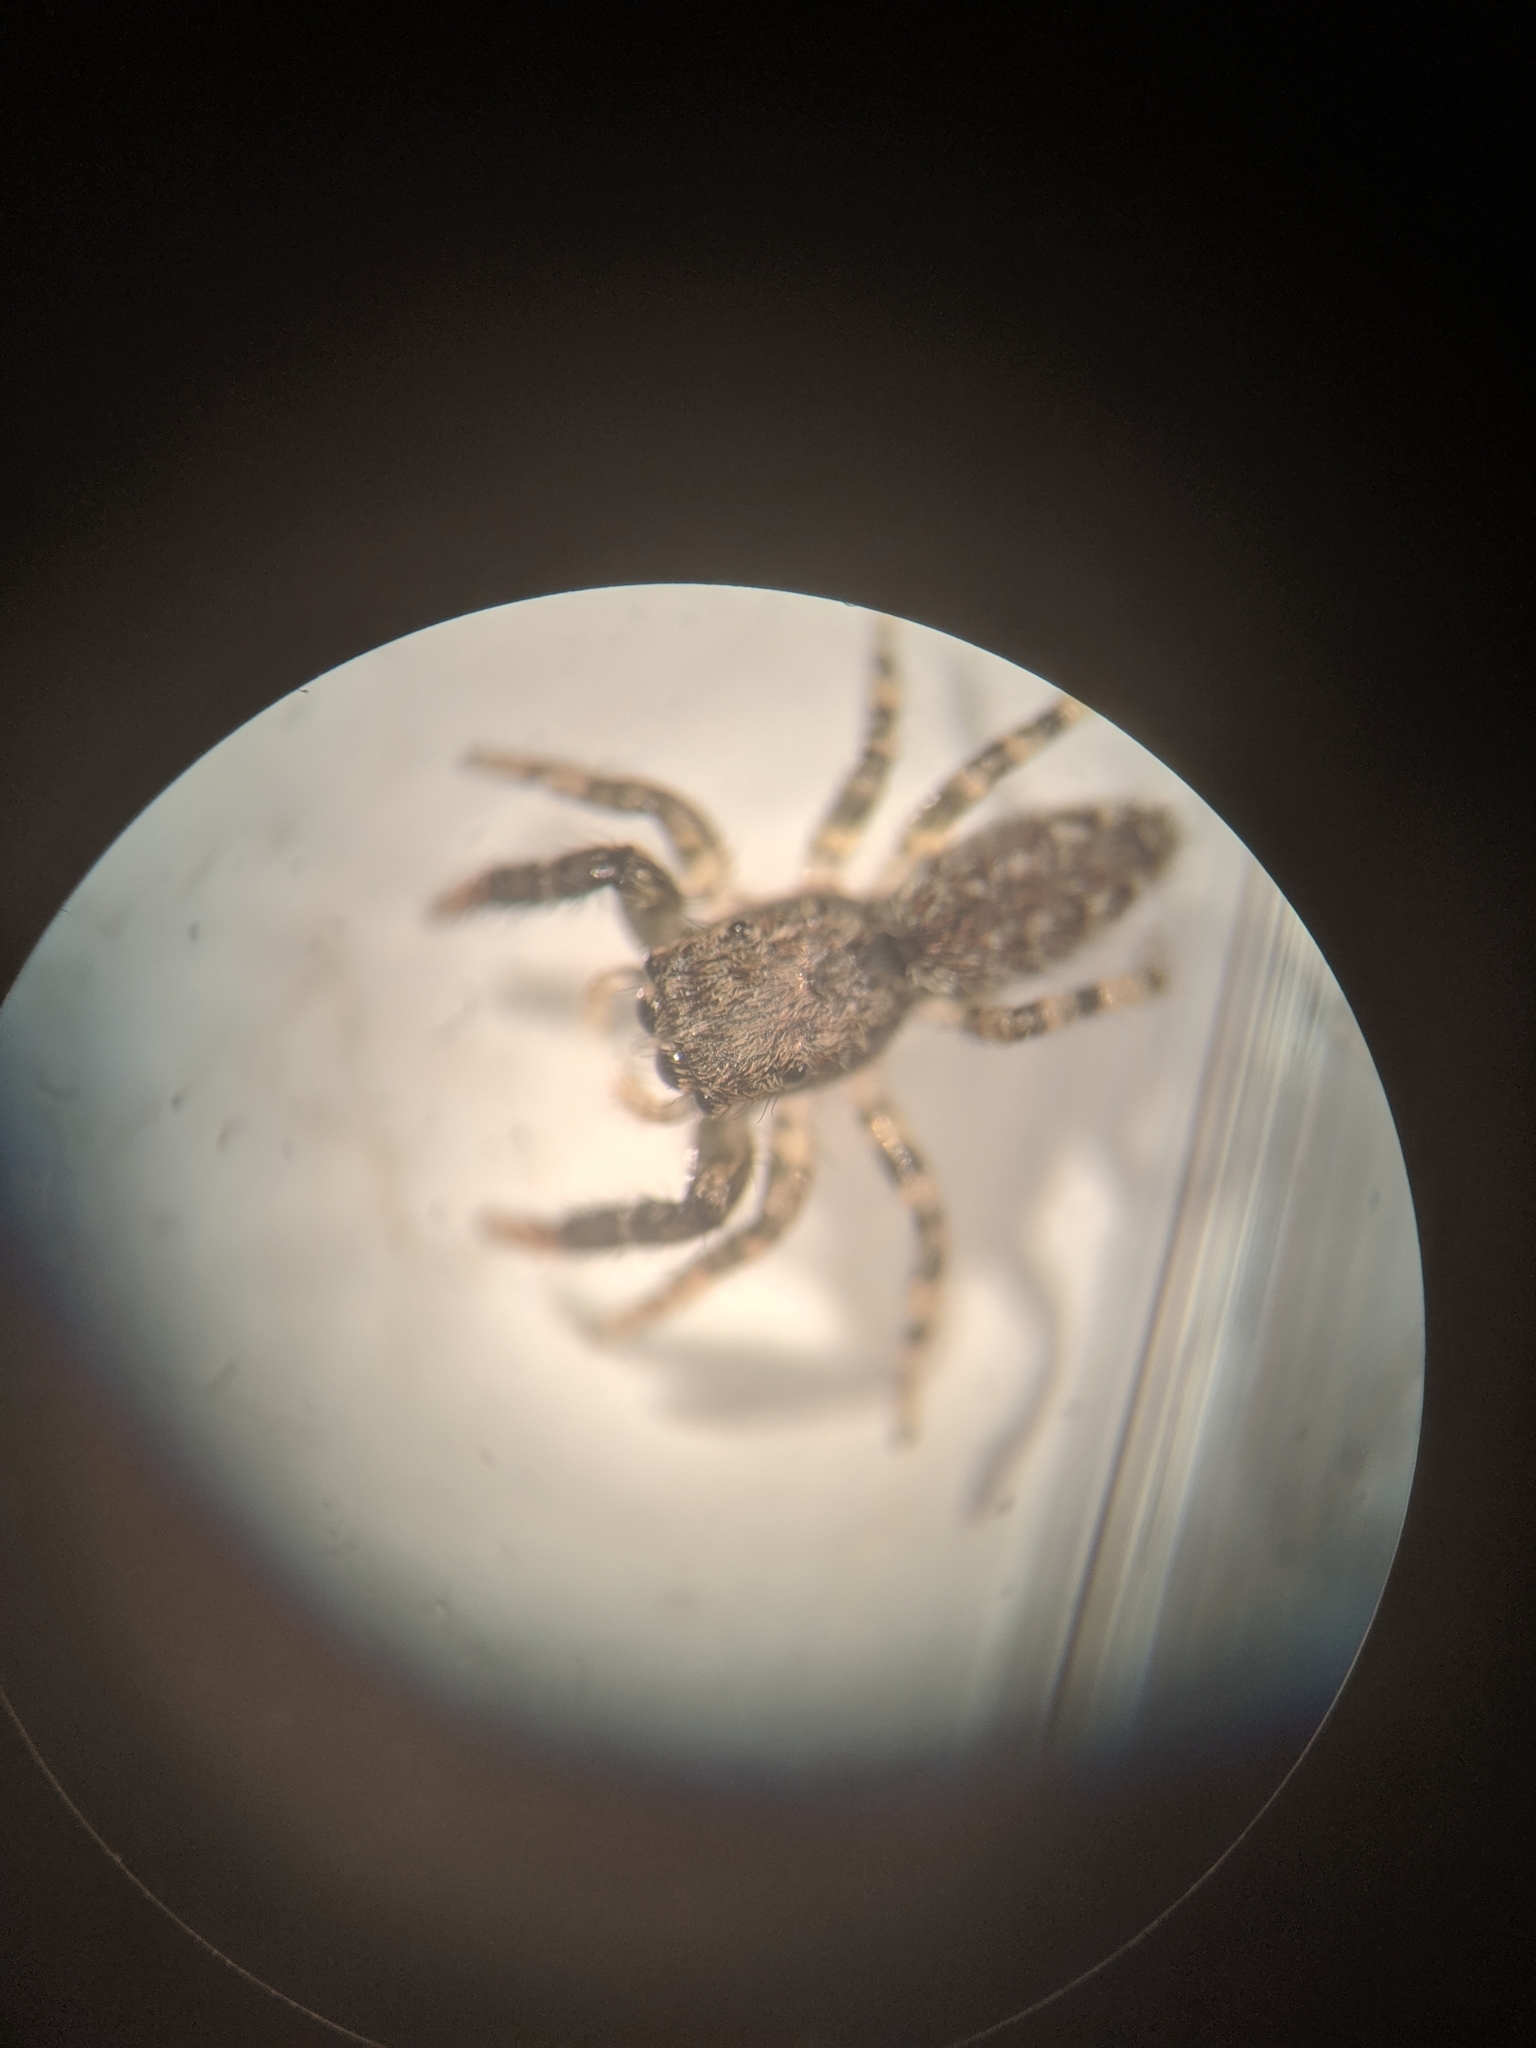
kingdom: Animalia
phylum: Arthropoda
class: Arachnida
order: Araneae
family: Salticidae
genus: Marpissa
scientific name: Marpissa muscosa
